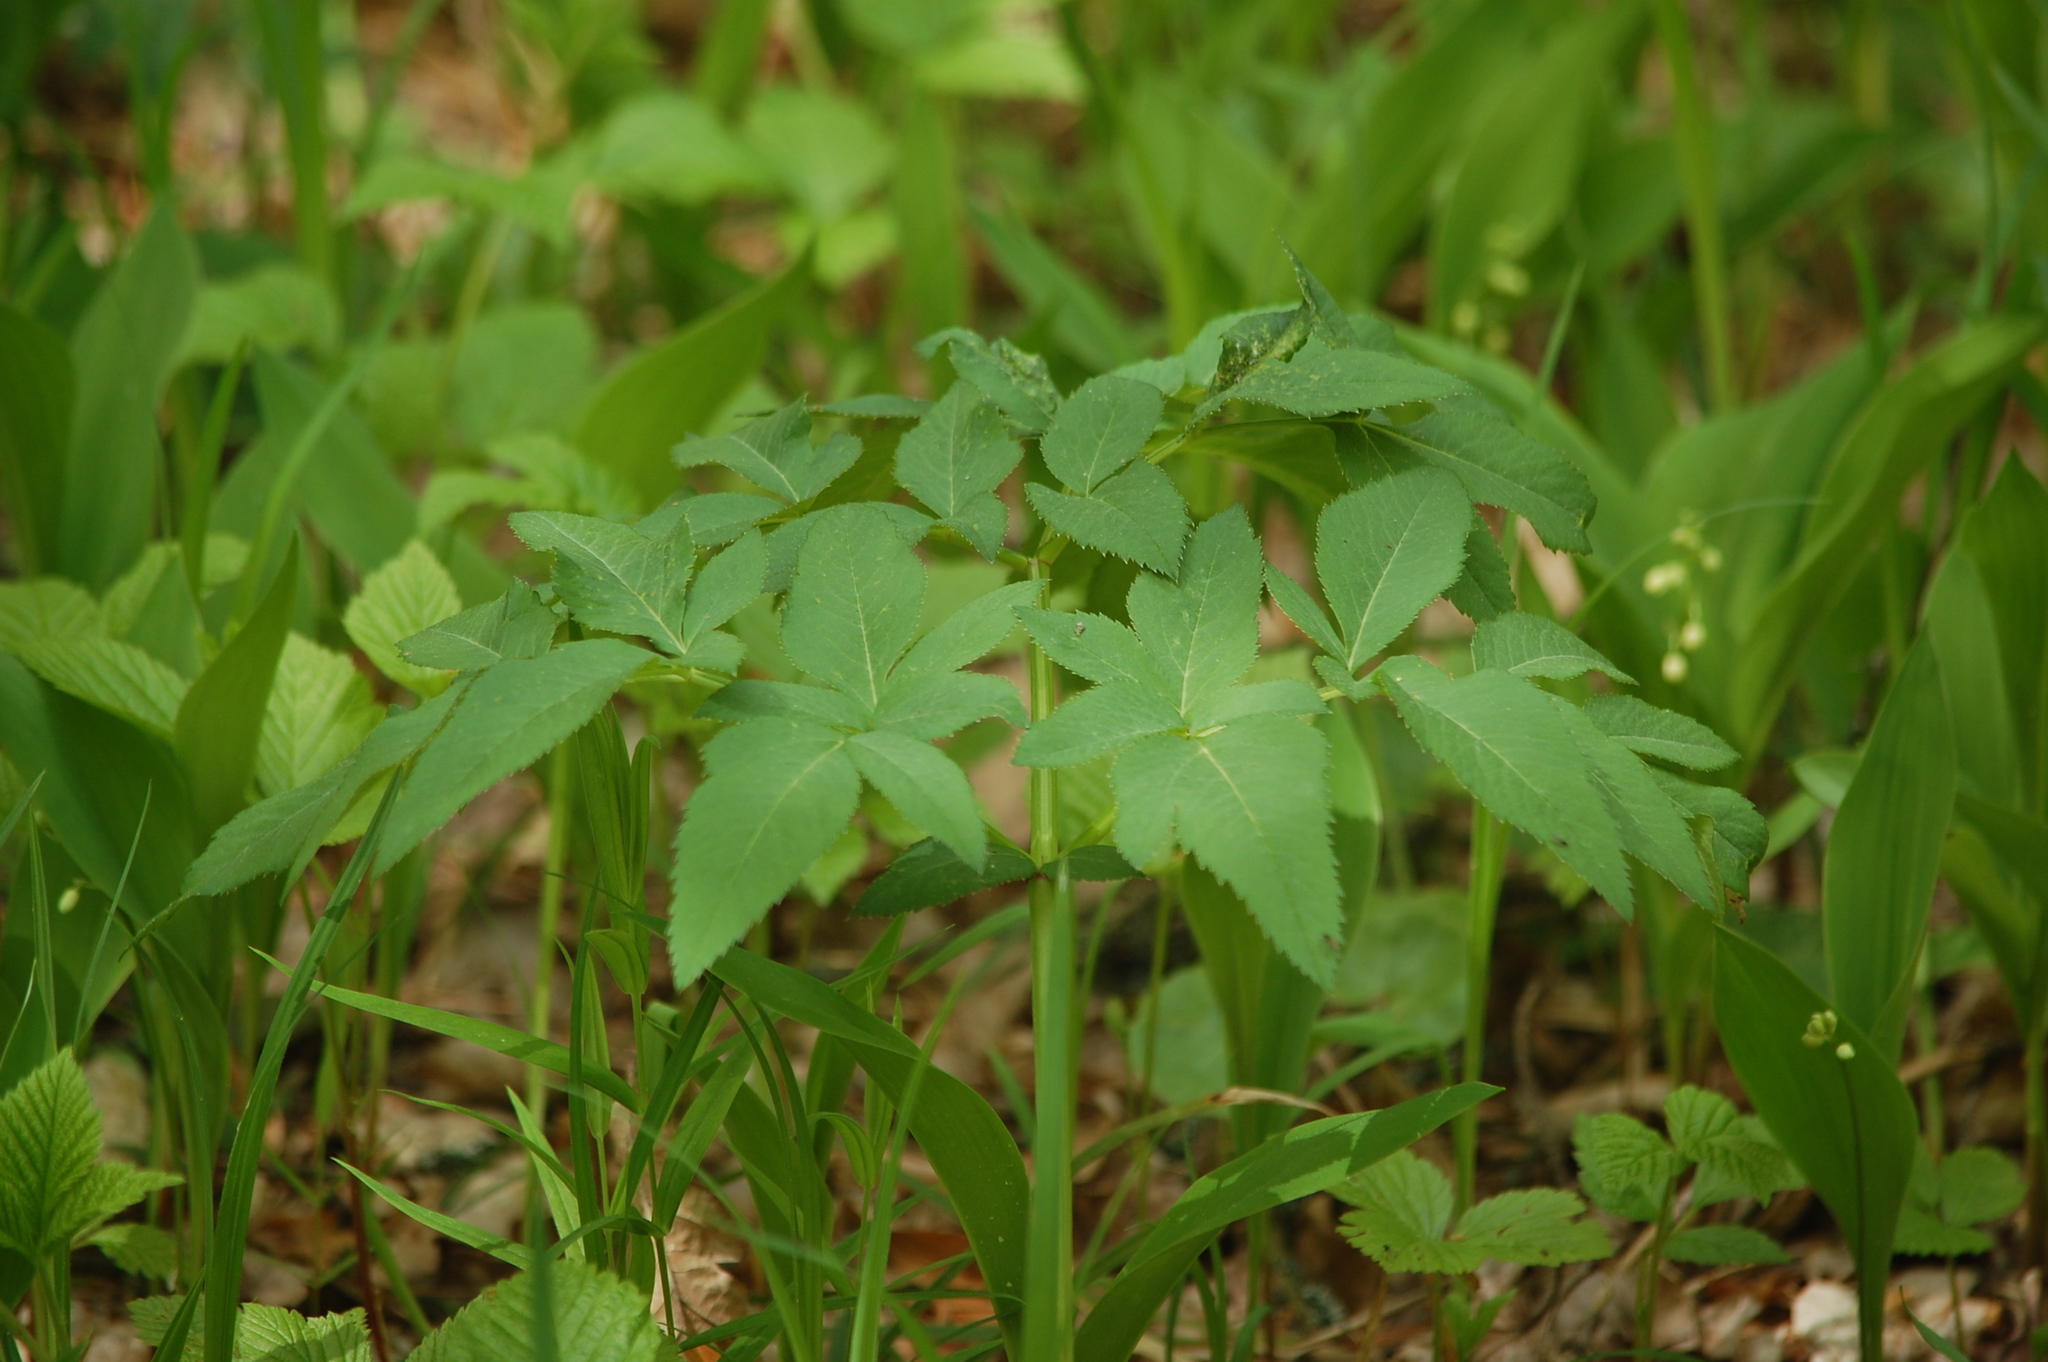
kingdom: Plantae
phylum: Tracheophyta
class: Magnoliopsida
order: Apiales
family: Apiaceae
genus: Angelica
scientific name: Angelica sylvestris
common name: Wild angelica
